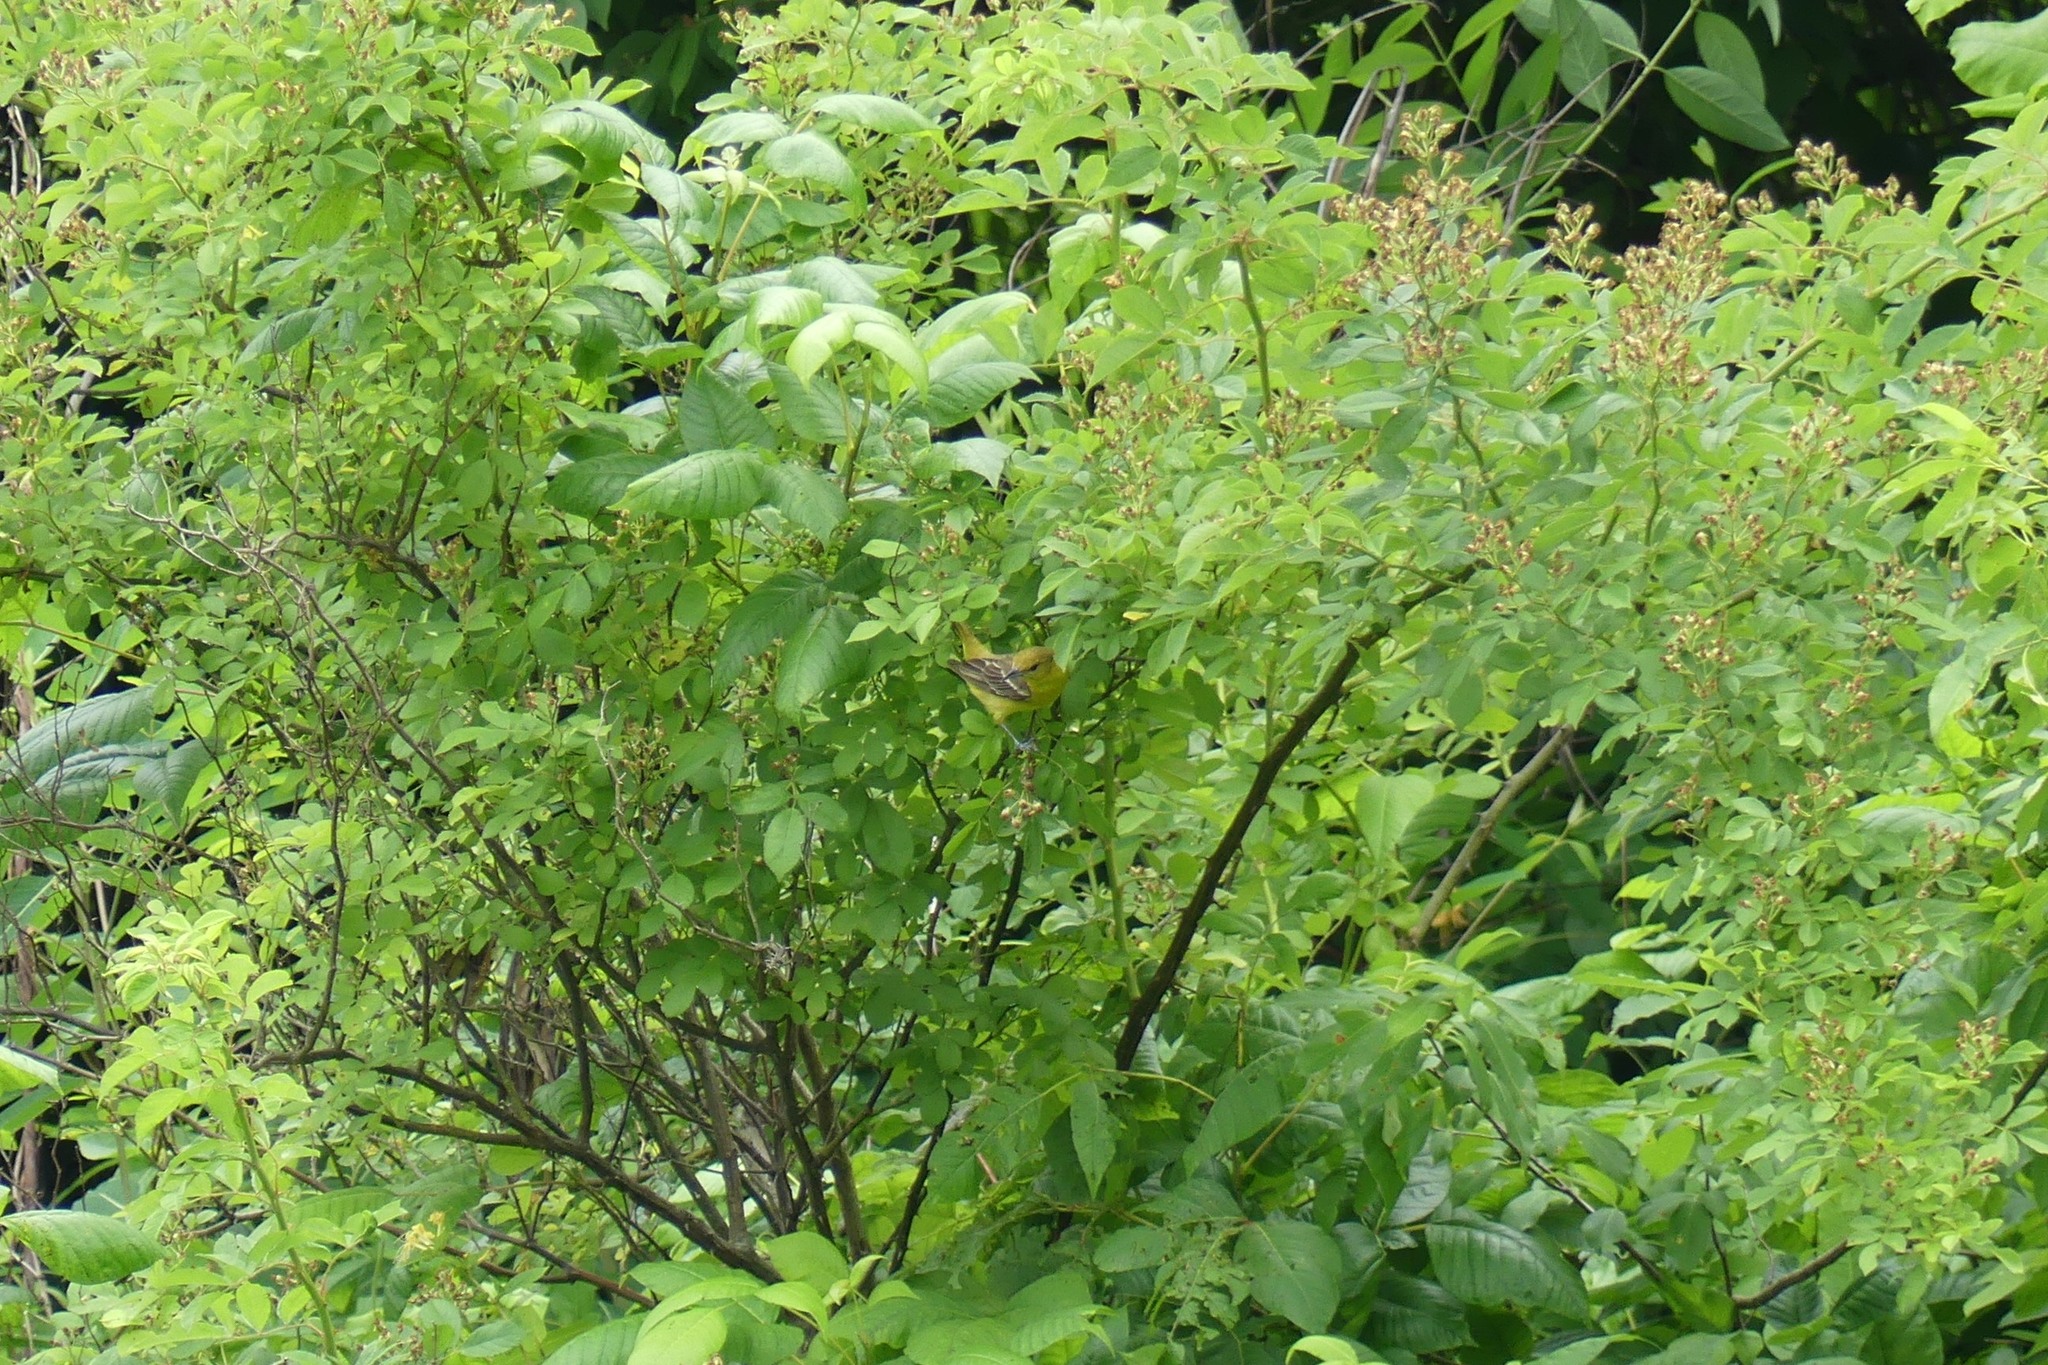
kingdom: Animalia
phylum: Chordata
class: Aves
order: Passeriformes
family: Icteridae
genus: Icterus
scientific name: Icterus spurius
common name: Orchard oriole
